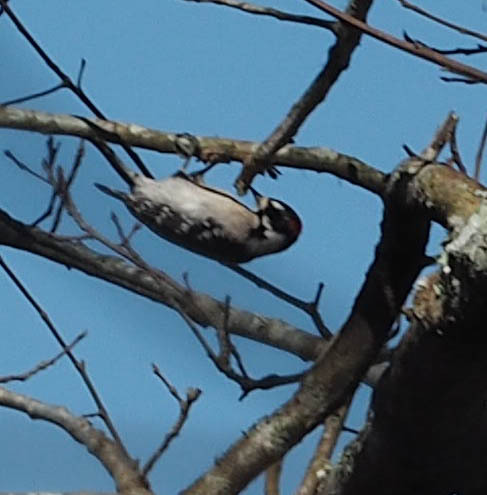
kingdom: Animalia
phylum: Chordata
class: Aves
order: Piciformes
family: Picidae
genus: Dryobates
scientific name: Dryobates pubescens
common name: Downy woodpecker
